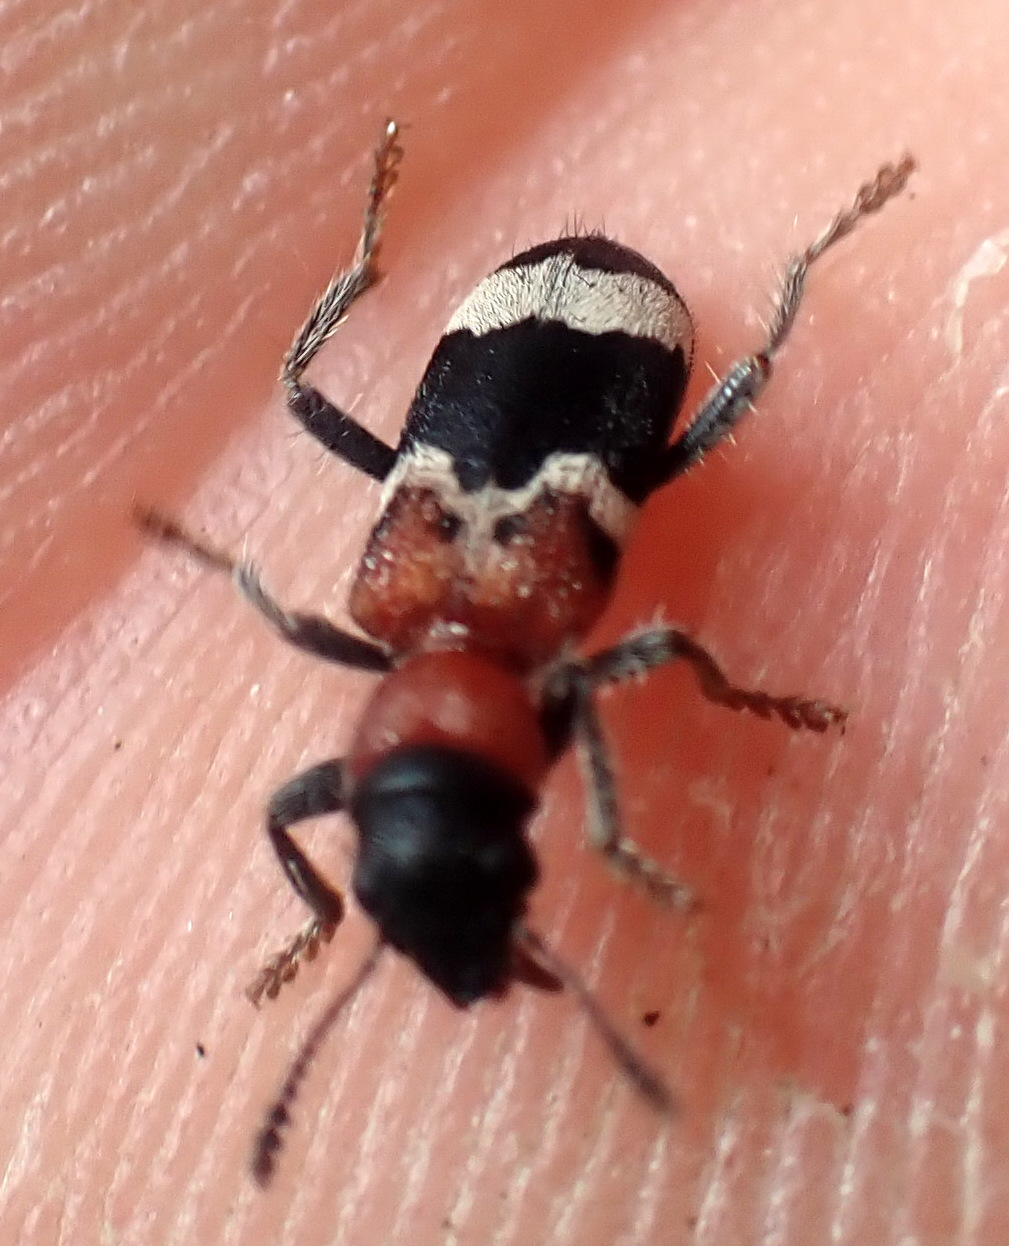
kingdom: Animalia
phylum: Arthropoda
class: Insecta
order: Coleoptera
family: Cleridae
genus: Thanasimus
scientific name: Thanasimus formicarius
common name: Ant beetle
